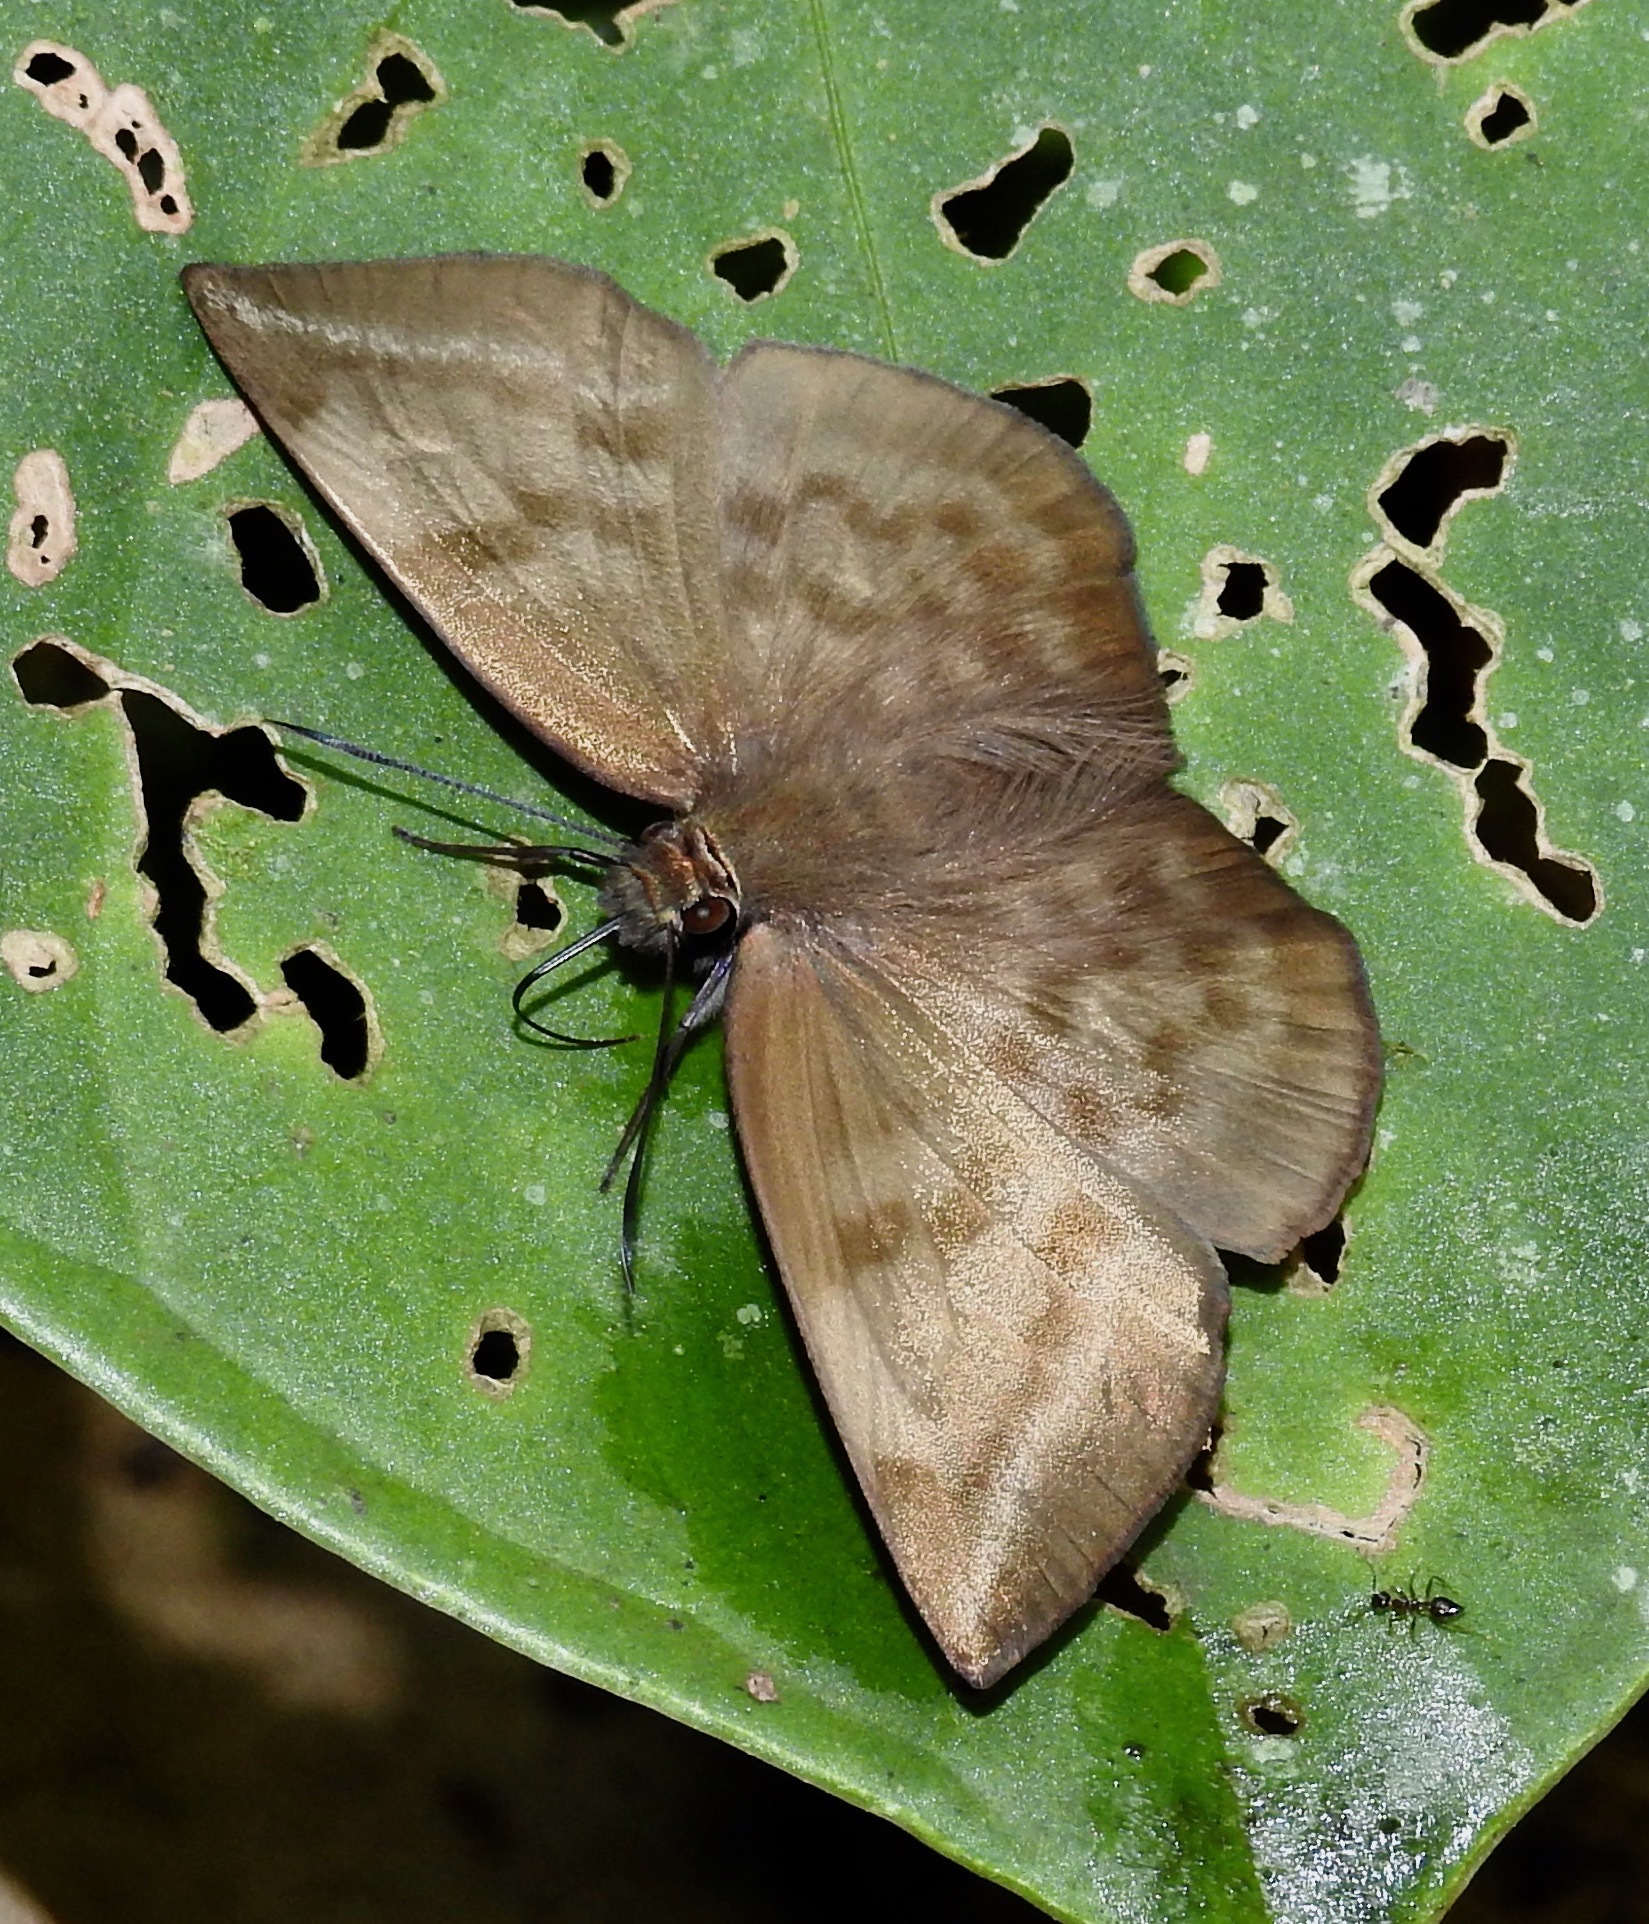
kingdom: Animalia
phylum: Arthropoda
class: Insecta
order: Lepidoptera
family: Hesperiidae
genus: Achlyodes
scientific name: Achlyodes pallida
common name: Pale sicklewing
